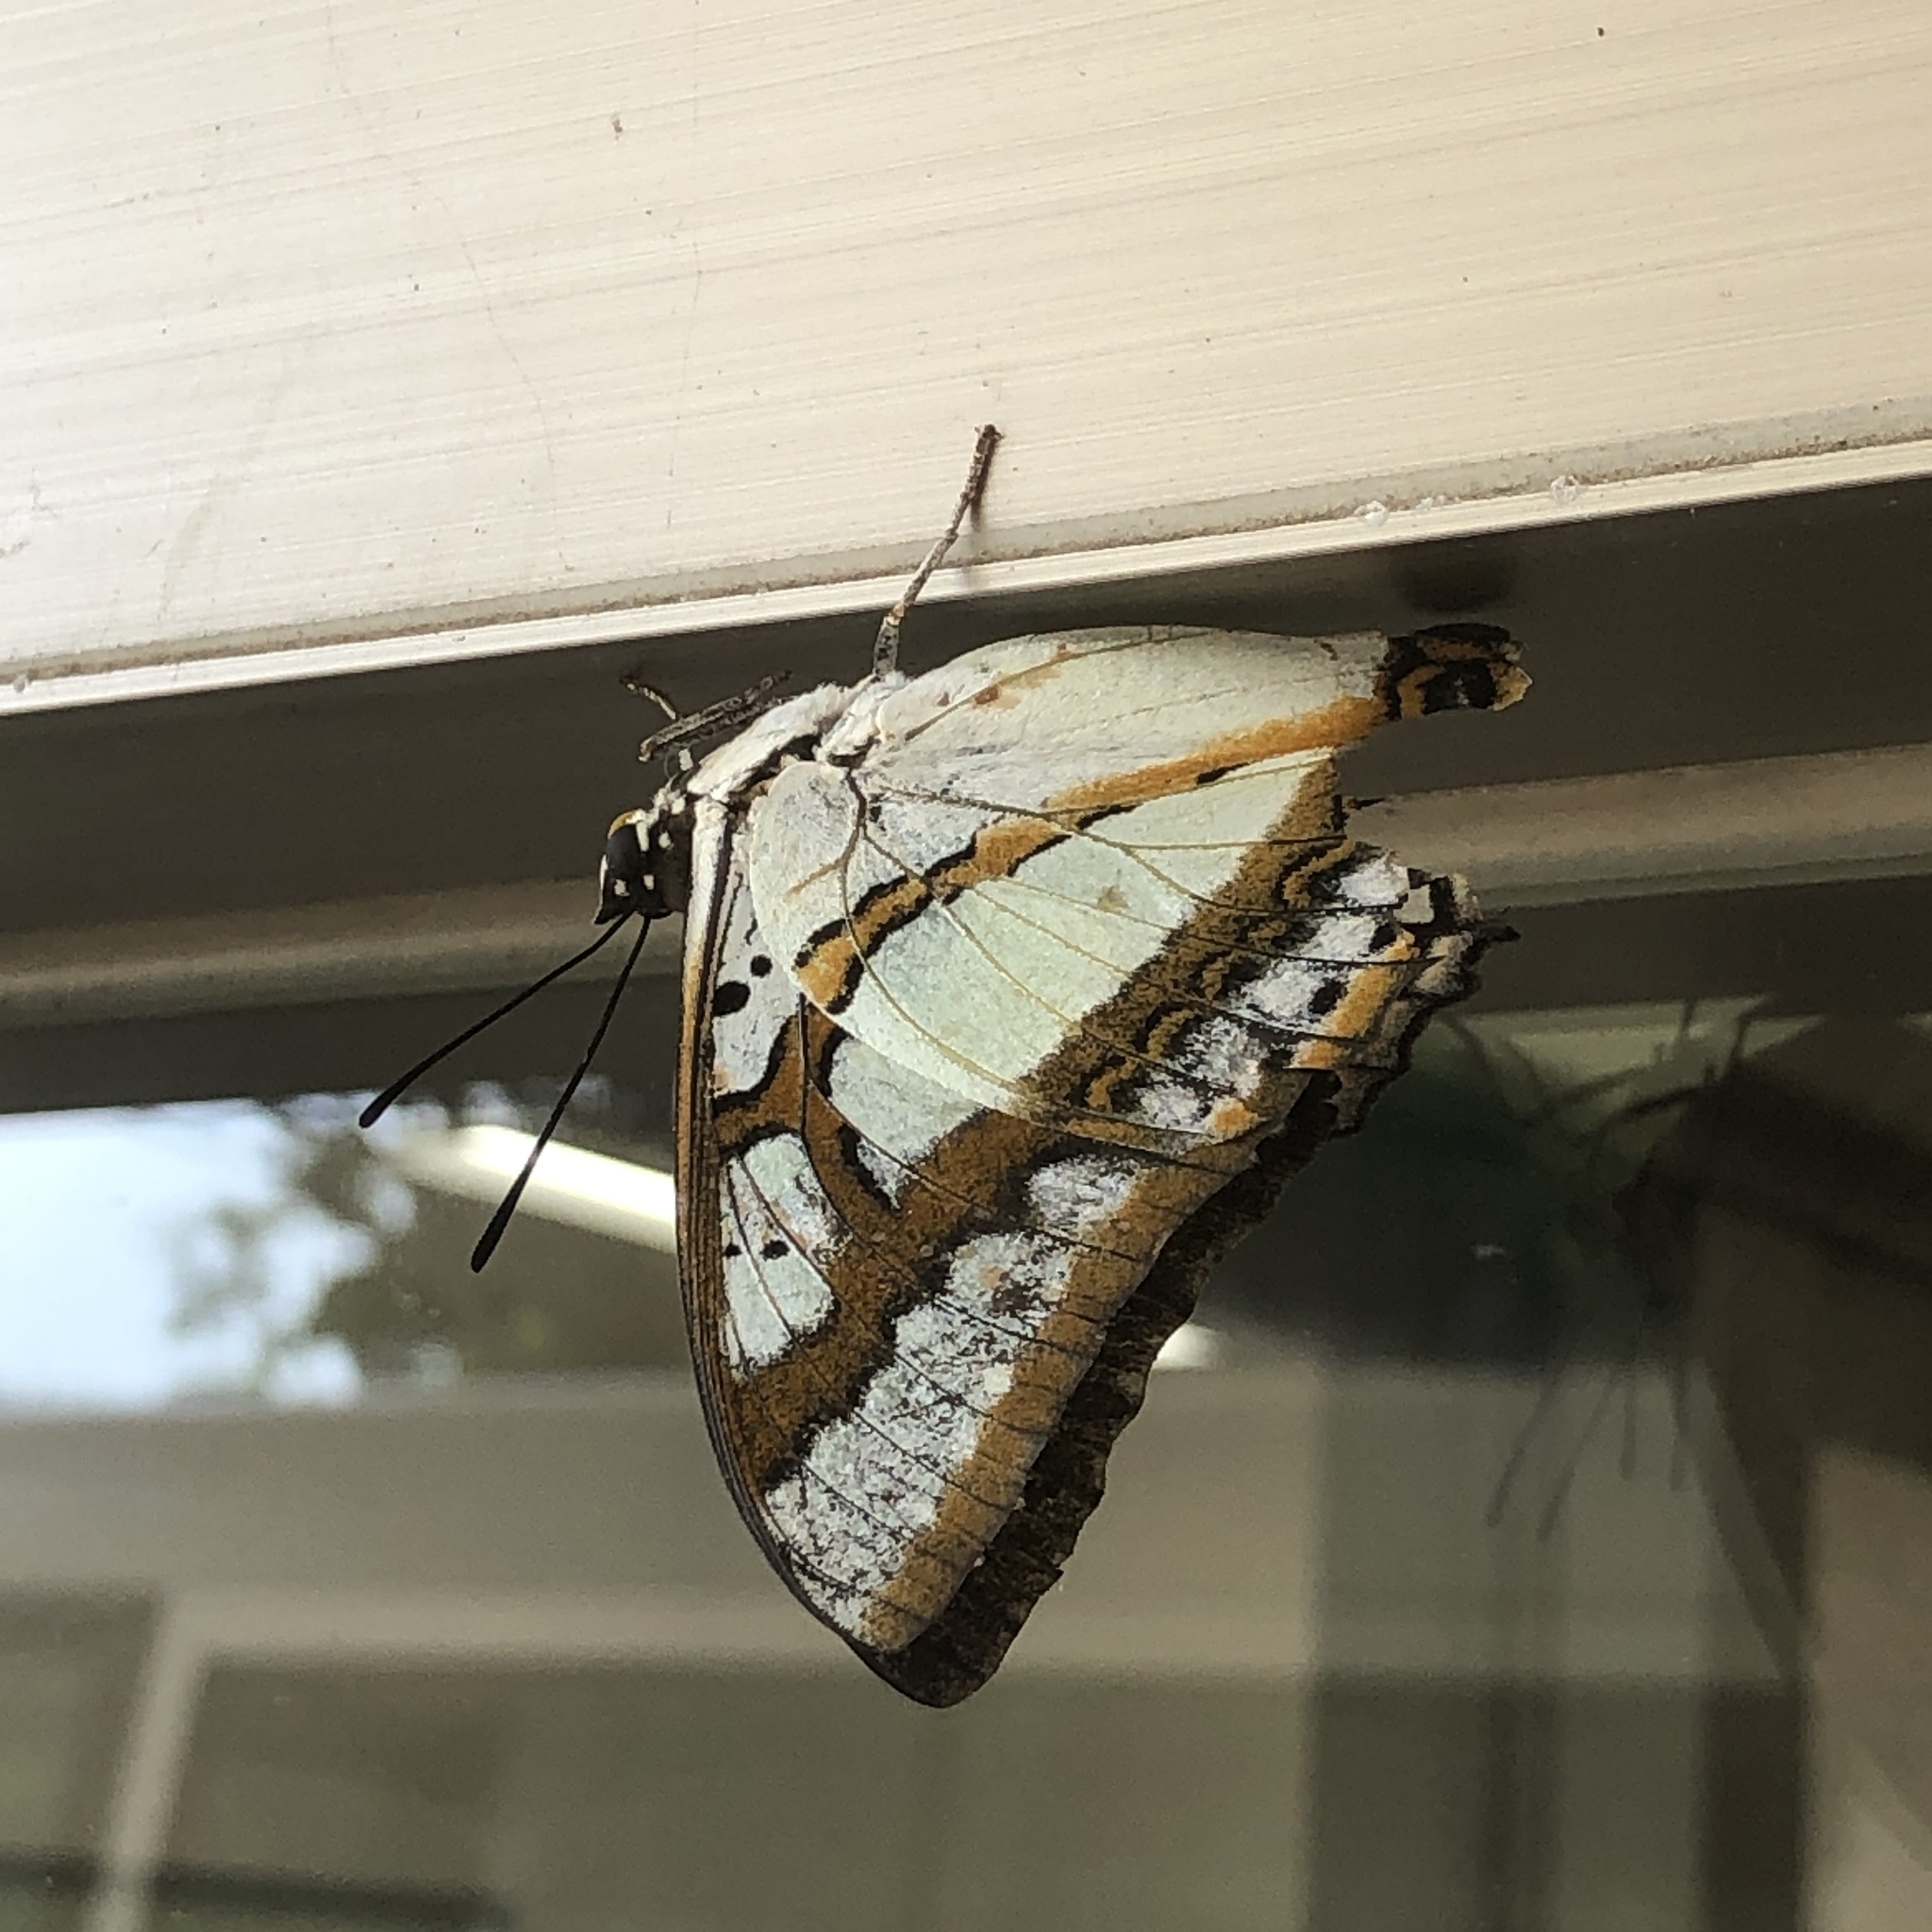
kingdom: Animalia
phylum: Arthropoda
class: Insecta
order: Lepidoptera
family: Nymphalidae
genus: Polyura
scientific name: Polyura
